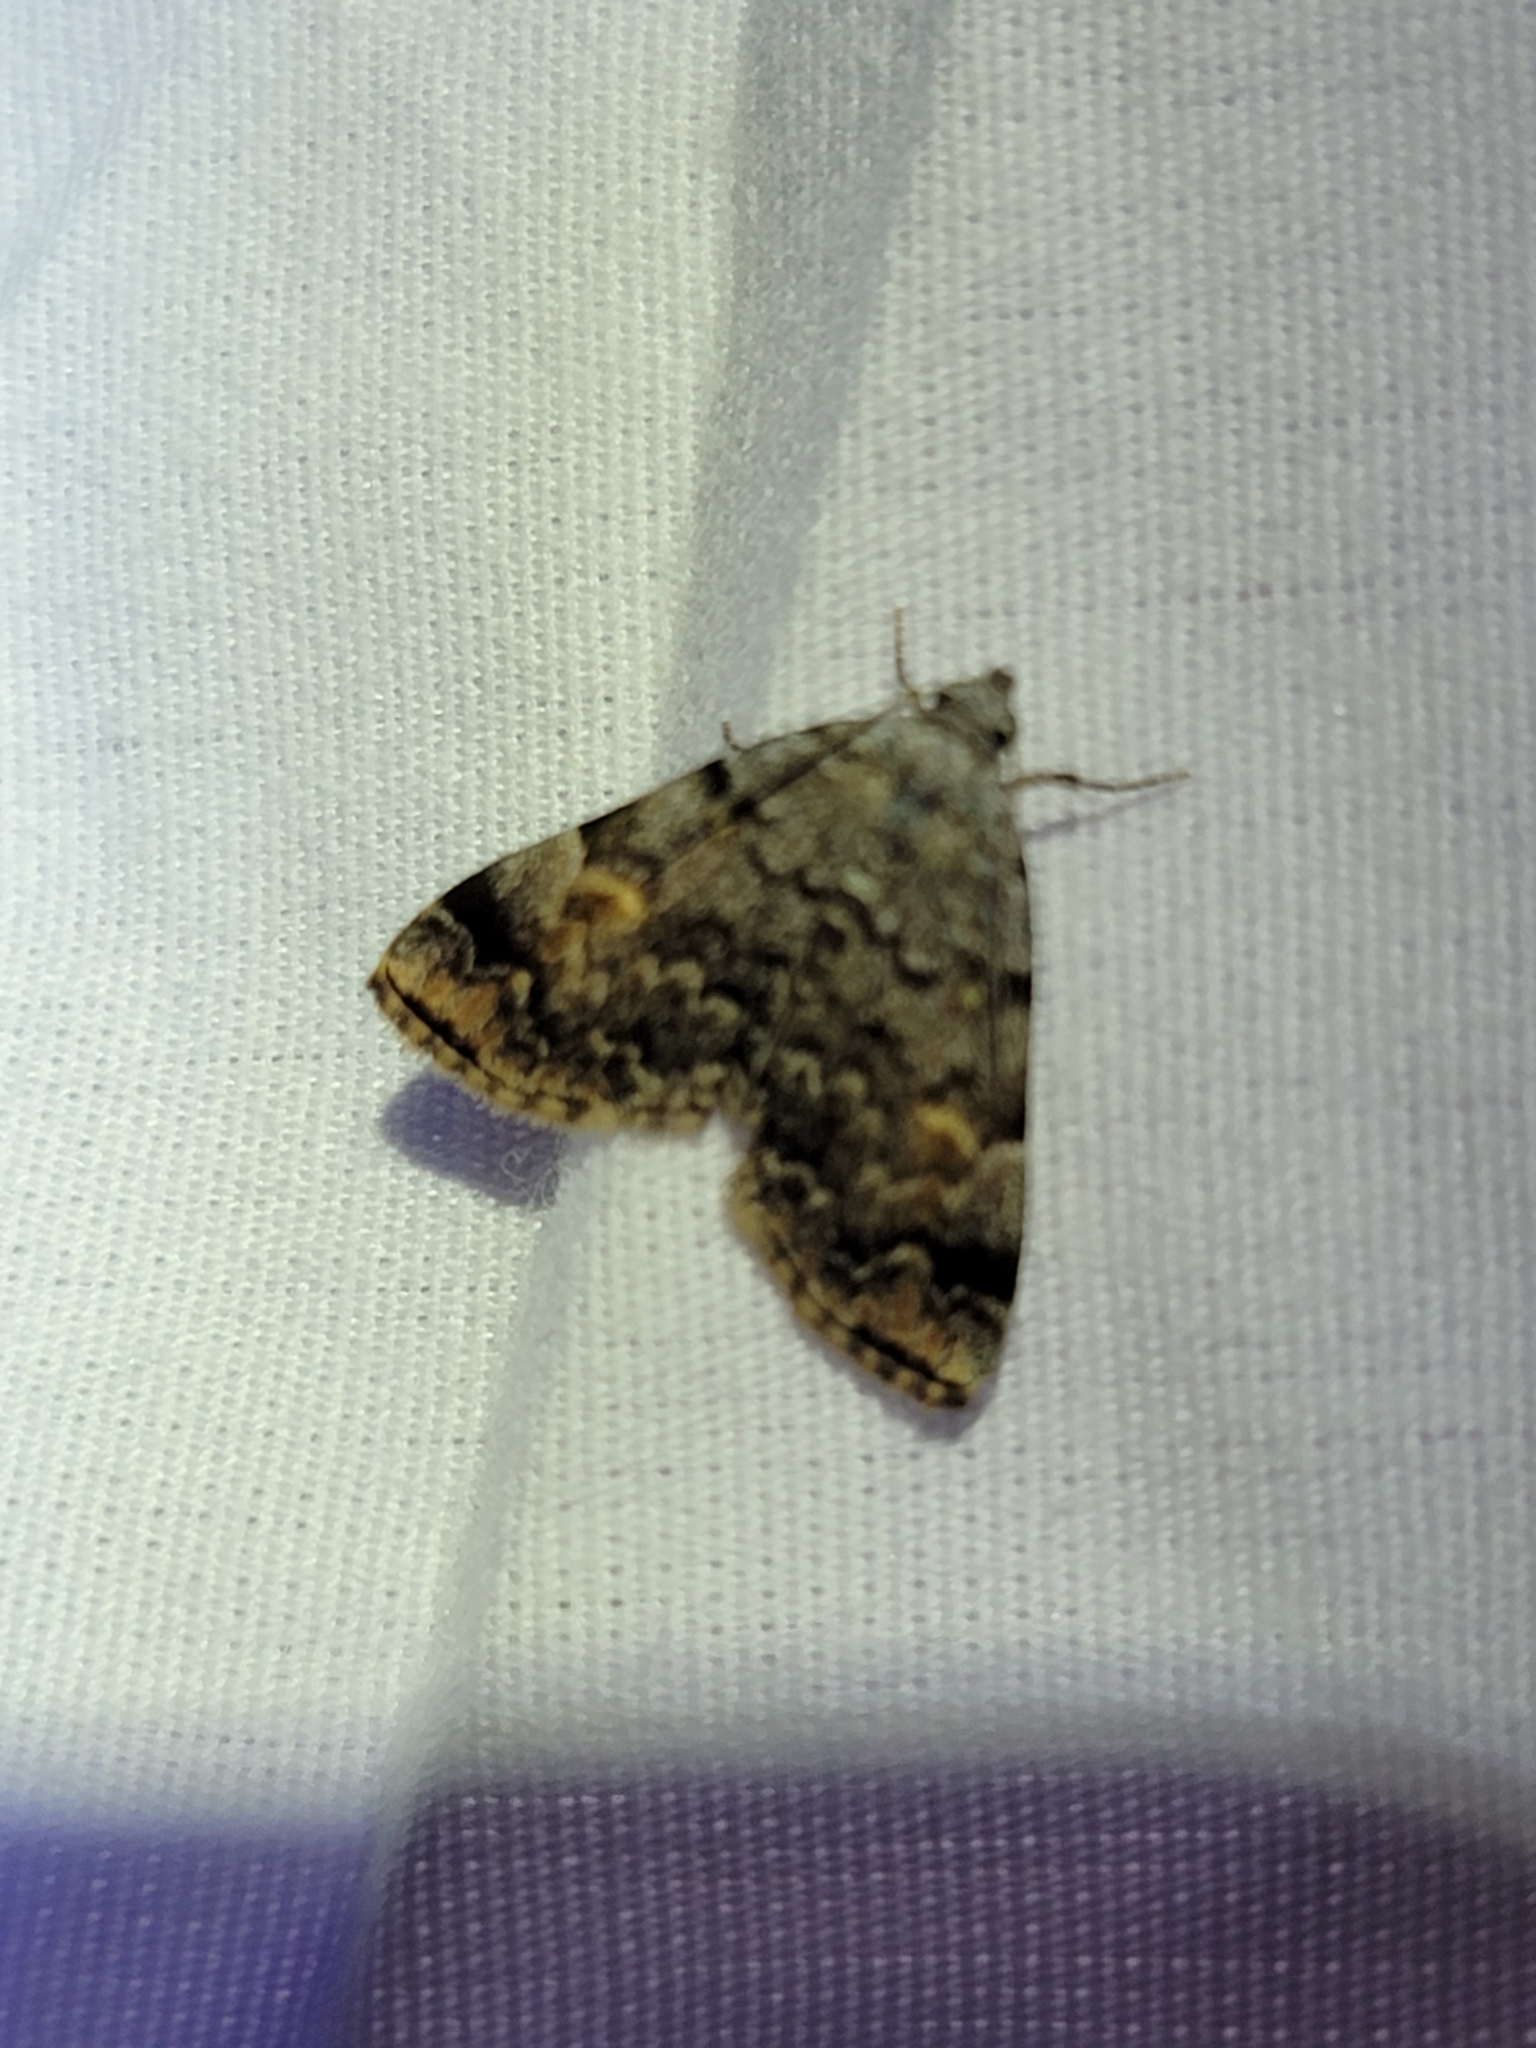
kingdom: Animalia
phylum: Arthropoda
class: Insecta
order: Lepidoptera
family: Erebidae
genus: Idia
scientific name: Idia americalis
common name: American idia moth
